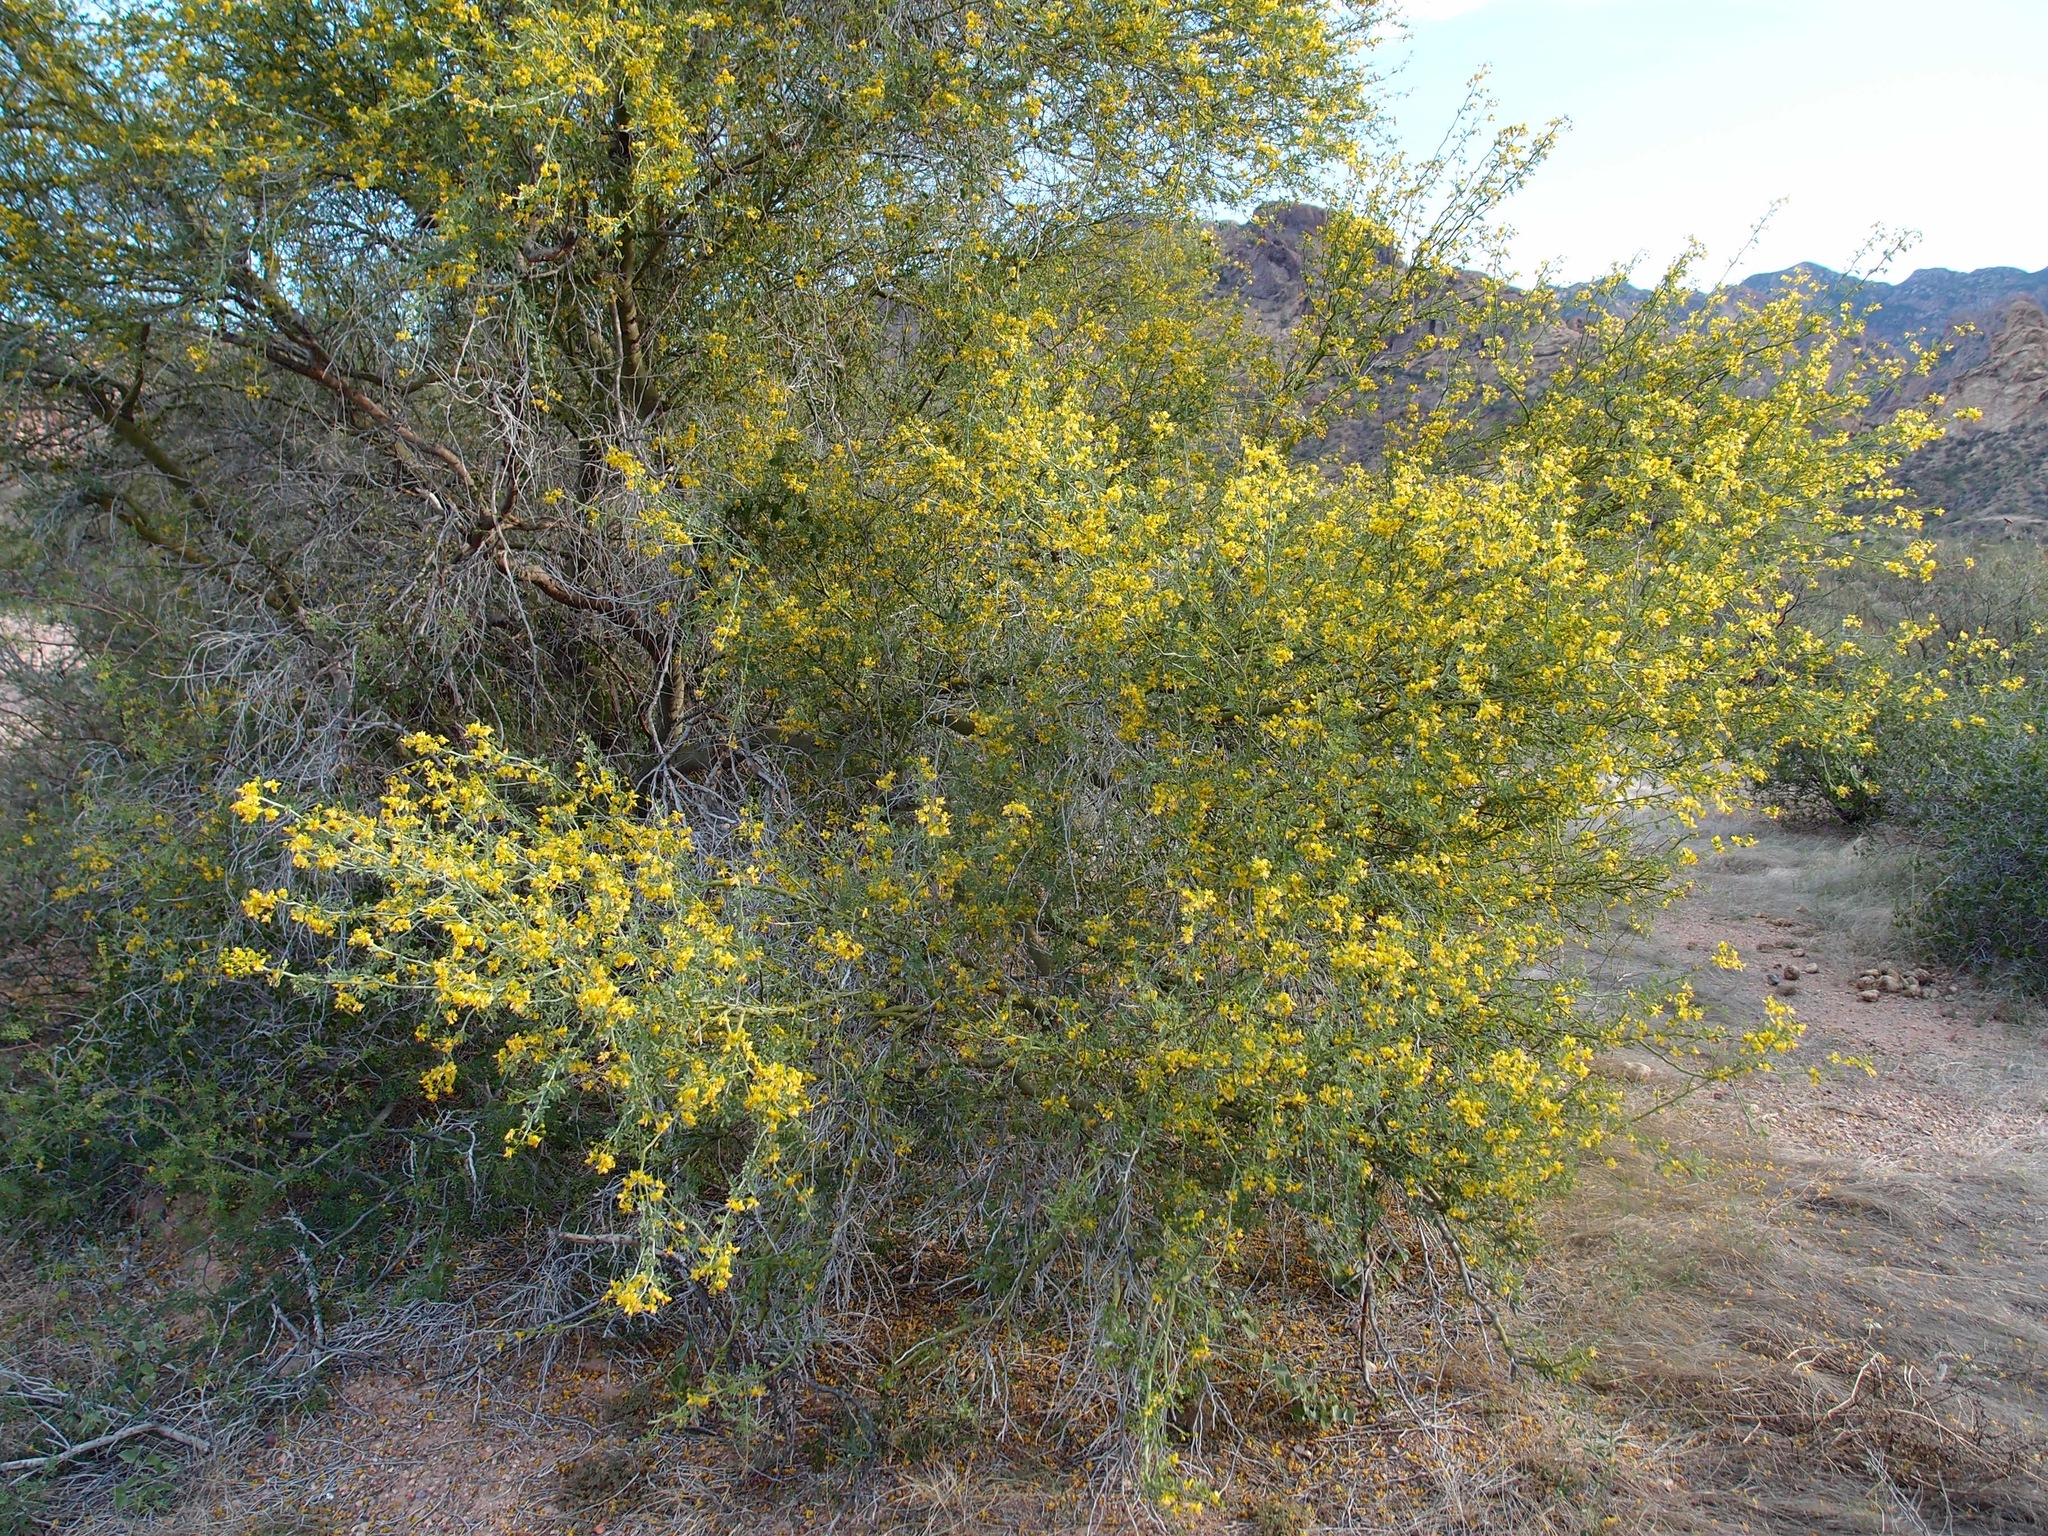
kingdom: Plantae
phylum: Tracheophyta
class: Magnoliopsida
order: Fabales
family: Fabaceae
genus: Parkinsonia
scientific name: Parkinsonia florida
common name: Blue paloverde
